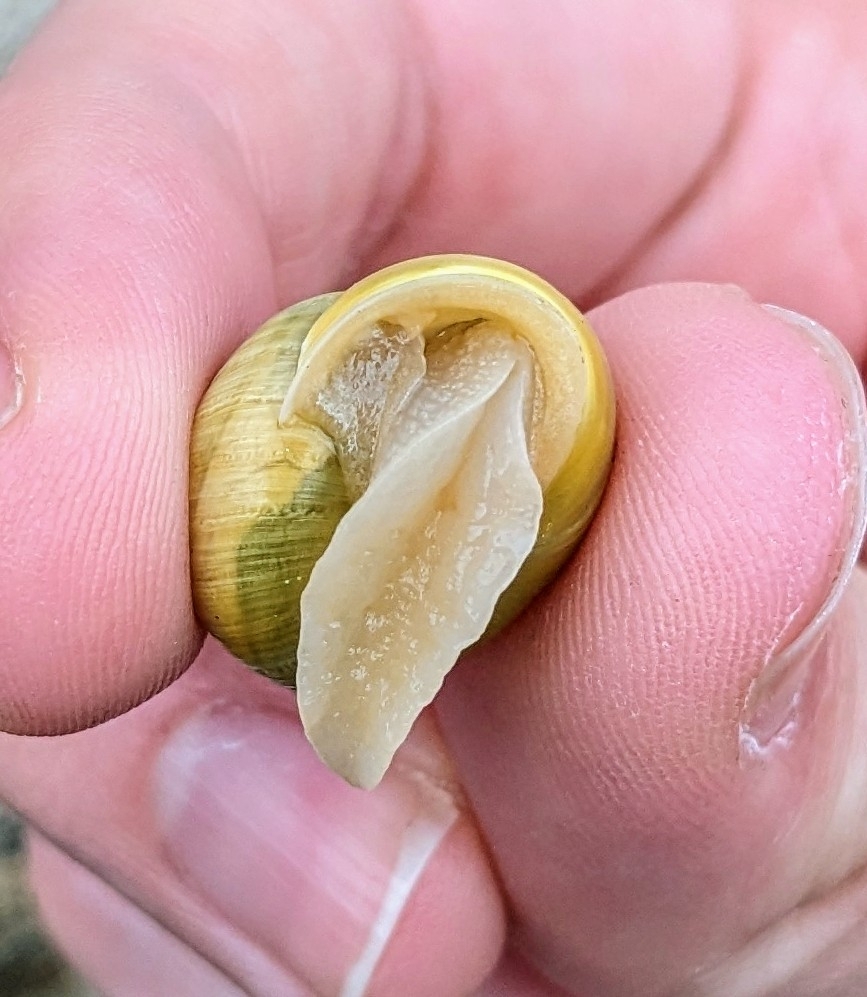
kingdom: Animalia
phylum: Mollusca
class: Gastropoda
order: Stylommatophora
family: Helicidae
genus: Cepaea
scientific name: Cepaea hortensis
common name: White-lip gardensnail
